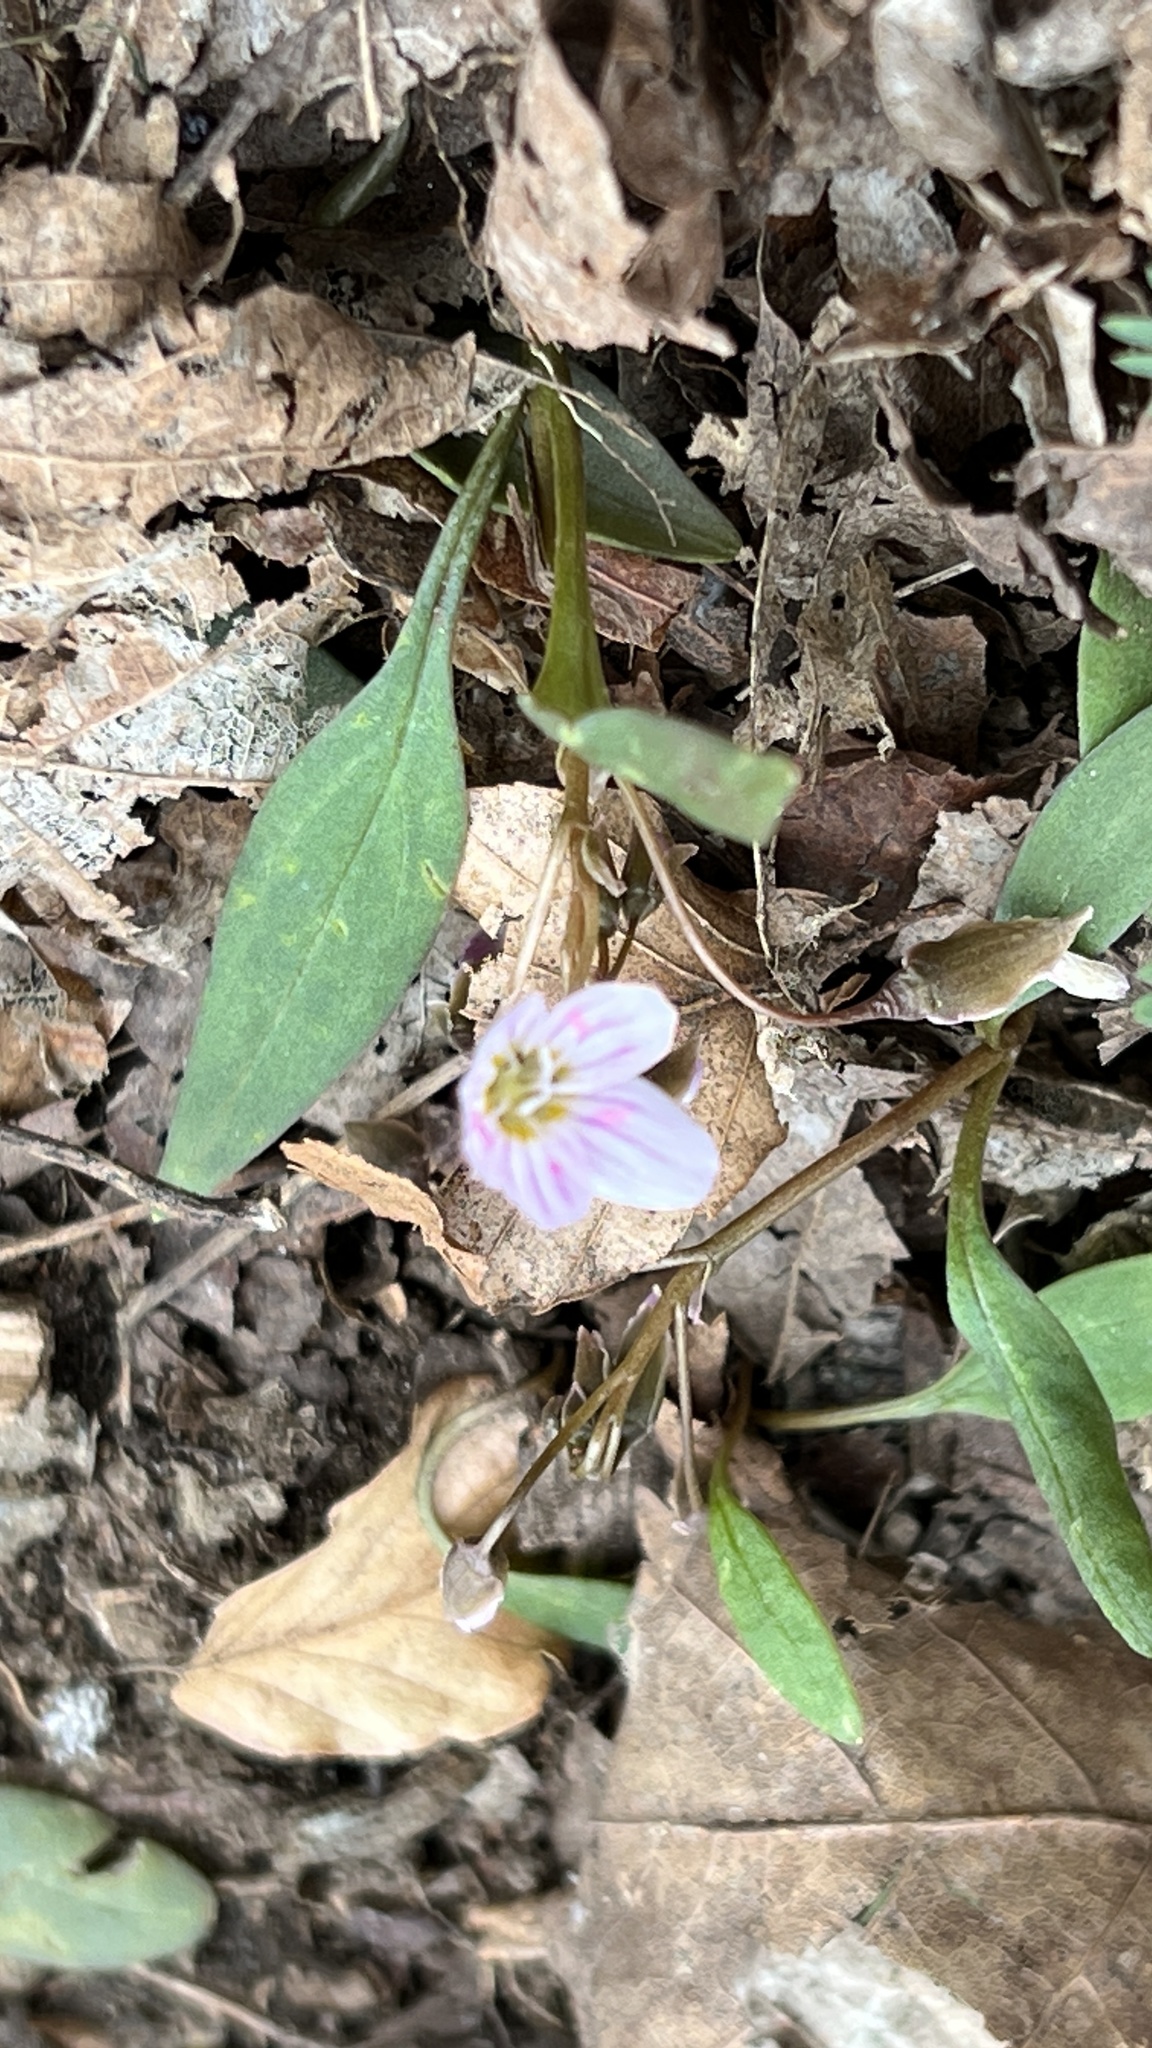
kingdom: Plantae
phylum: Tracheophyta
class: Magnoliopsida
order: Caryophyllales
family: Montiaceae
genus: Claytonia
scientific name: Claytonia caroliniana
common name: Carolina spring beauty
